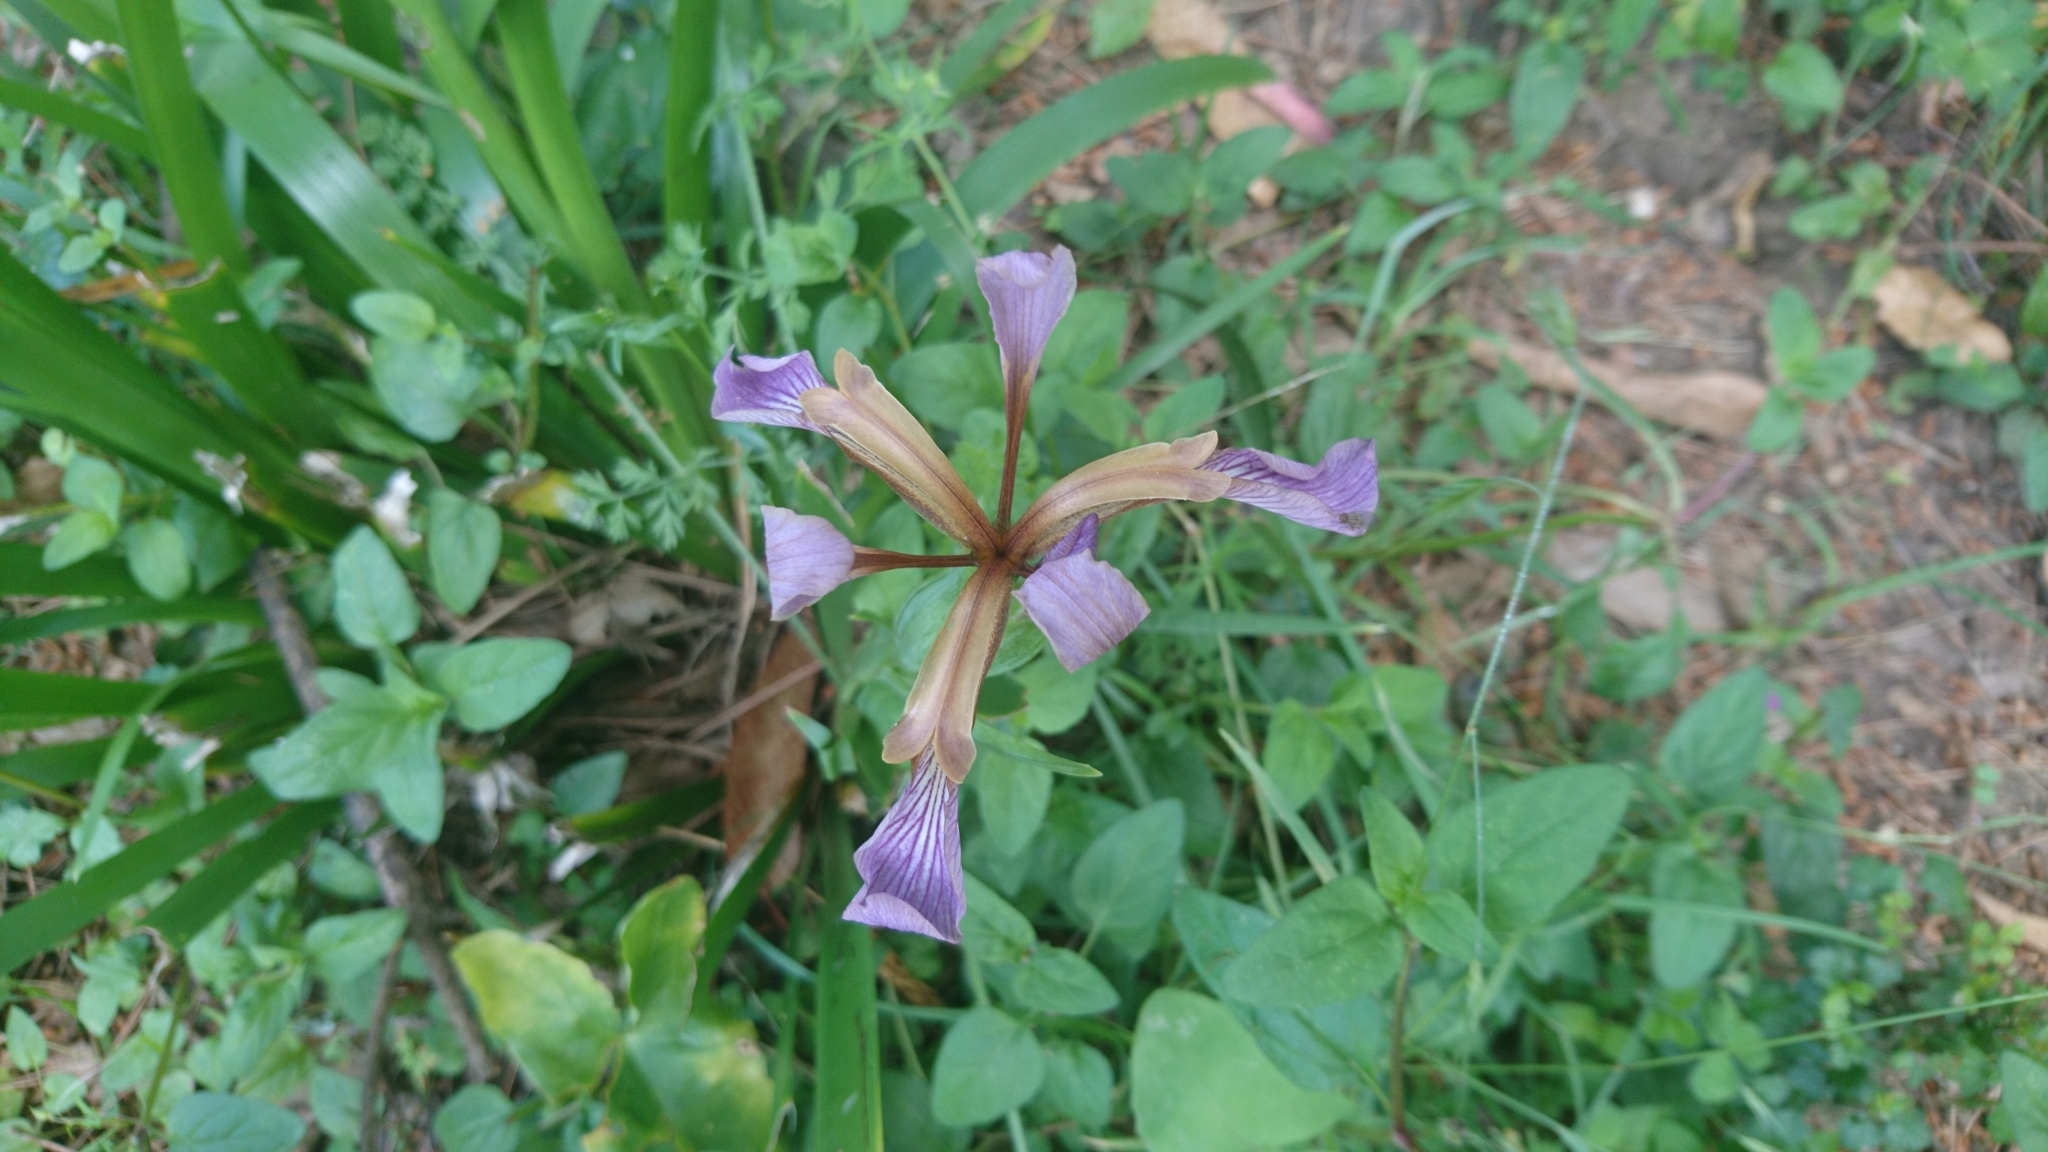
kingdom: Plantae
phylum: Tracheophyta
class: Liliopsida
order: Asparagales
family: Iridaceae
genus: Iris
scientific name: Iris foetidissima
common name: Stinking iris
